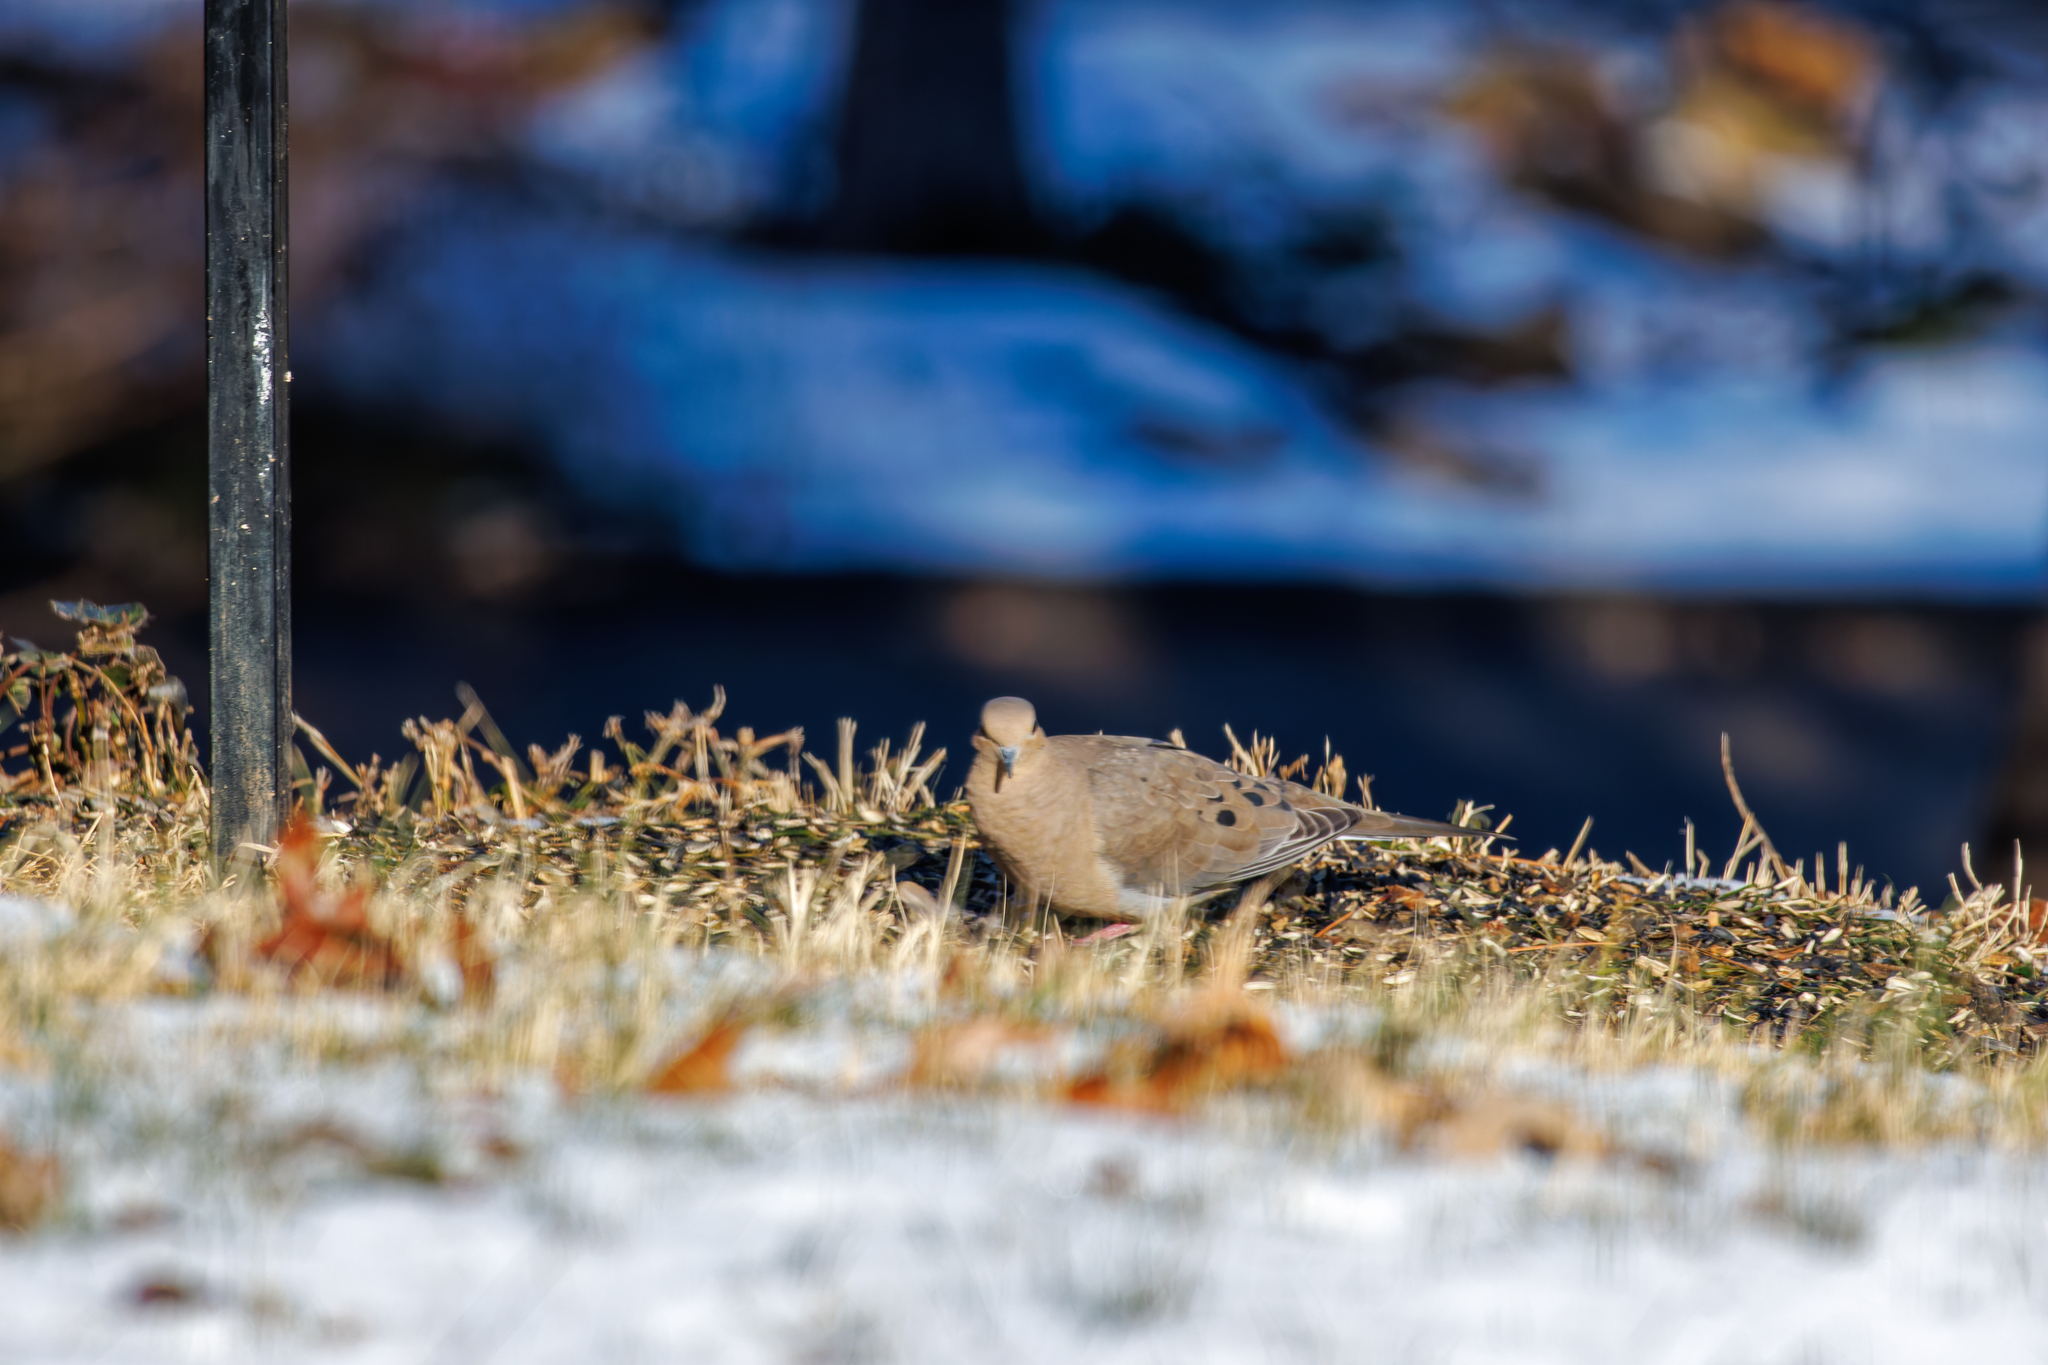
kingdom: Animalia
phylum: Chordata
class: Aves
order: Columbiformes
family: Columbidae
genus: Zenaida
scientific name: Zenaida macroura
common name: Mourning dove
